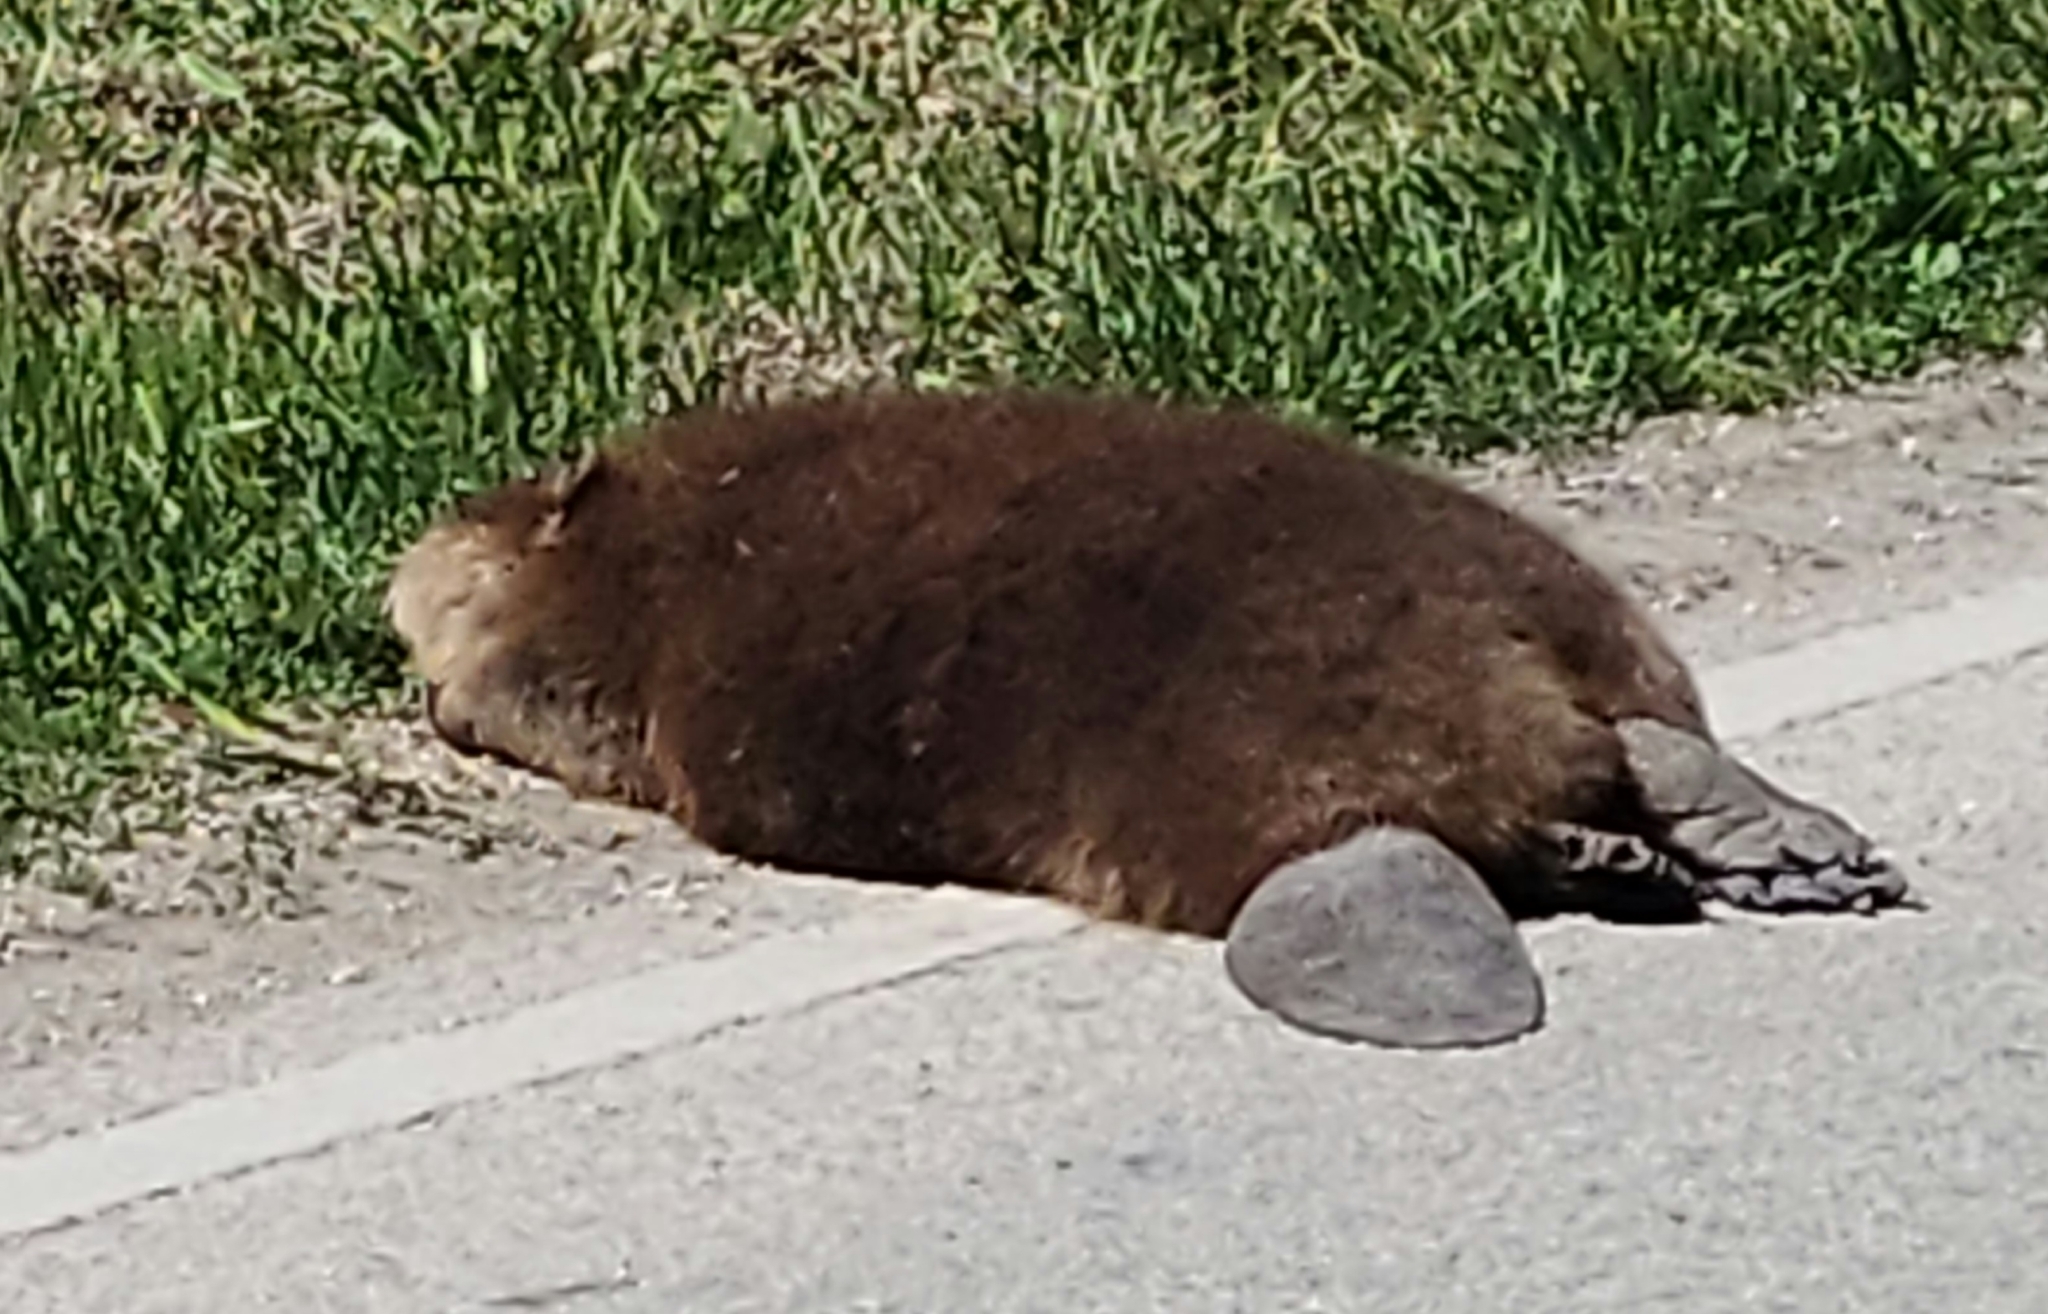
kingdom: Animalia
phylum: Chordata
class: Mammalia
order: Rodentia
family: Castoridae
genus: Castor
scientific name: Castor canadensis
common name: American beaver
